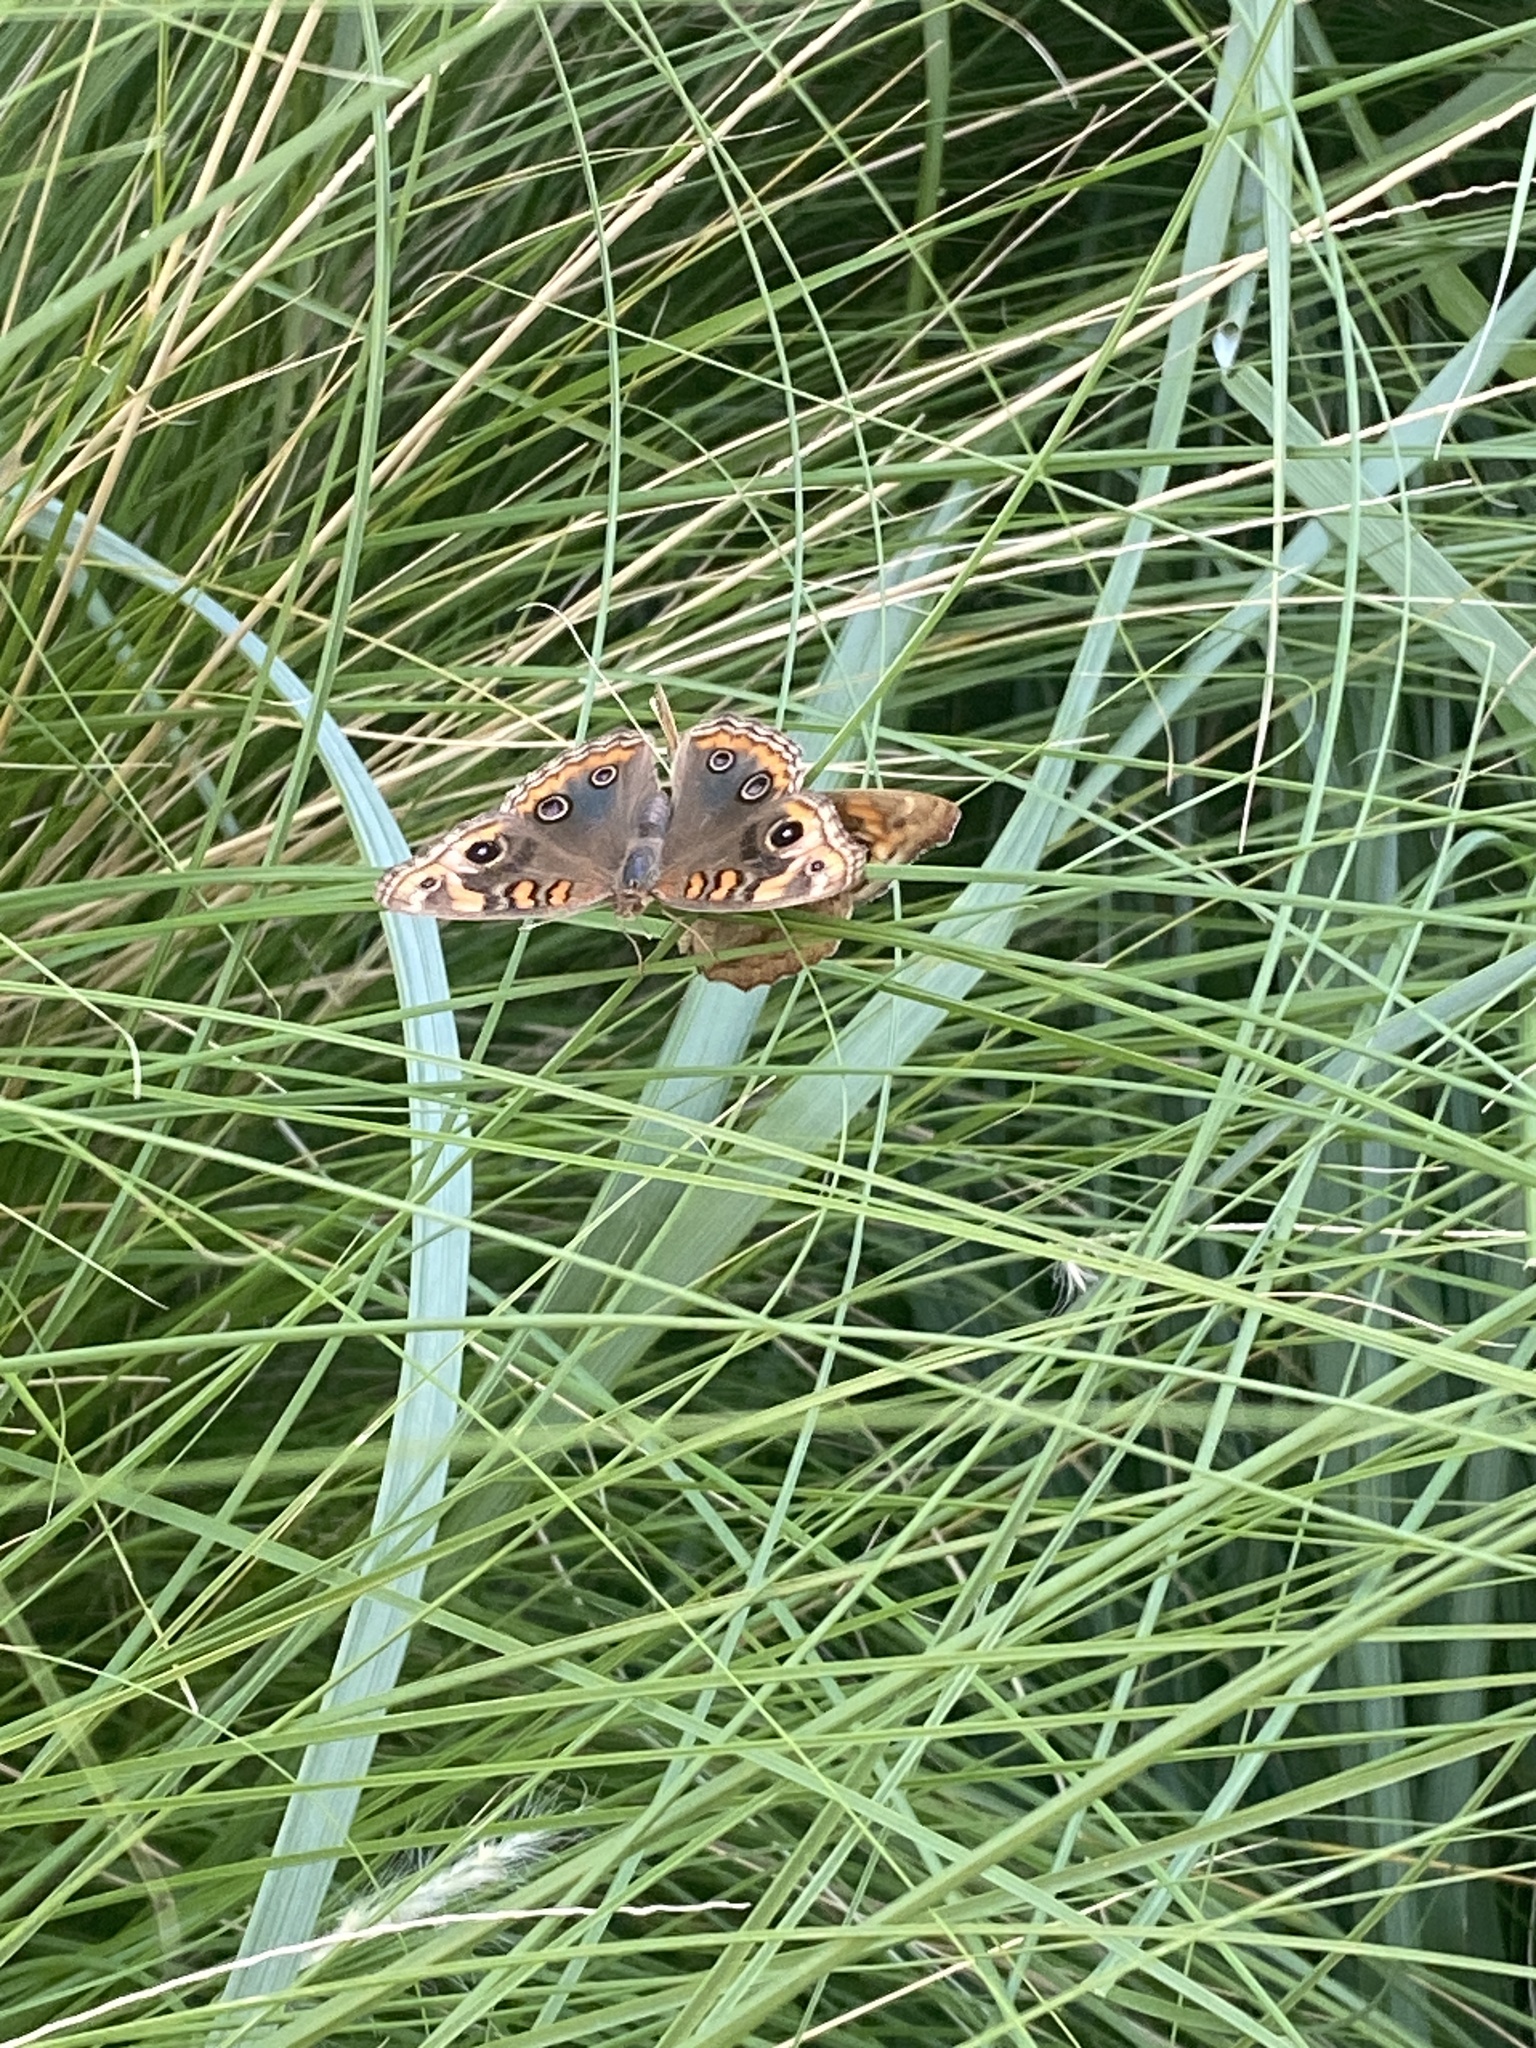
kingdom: Animalia
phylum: Arthropoda
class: Insecta
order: Lepidoptera
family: Nymphalidae
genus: Junonia
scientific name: Junonia lavinia
